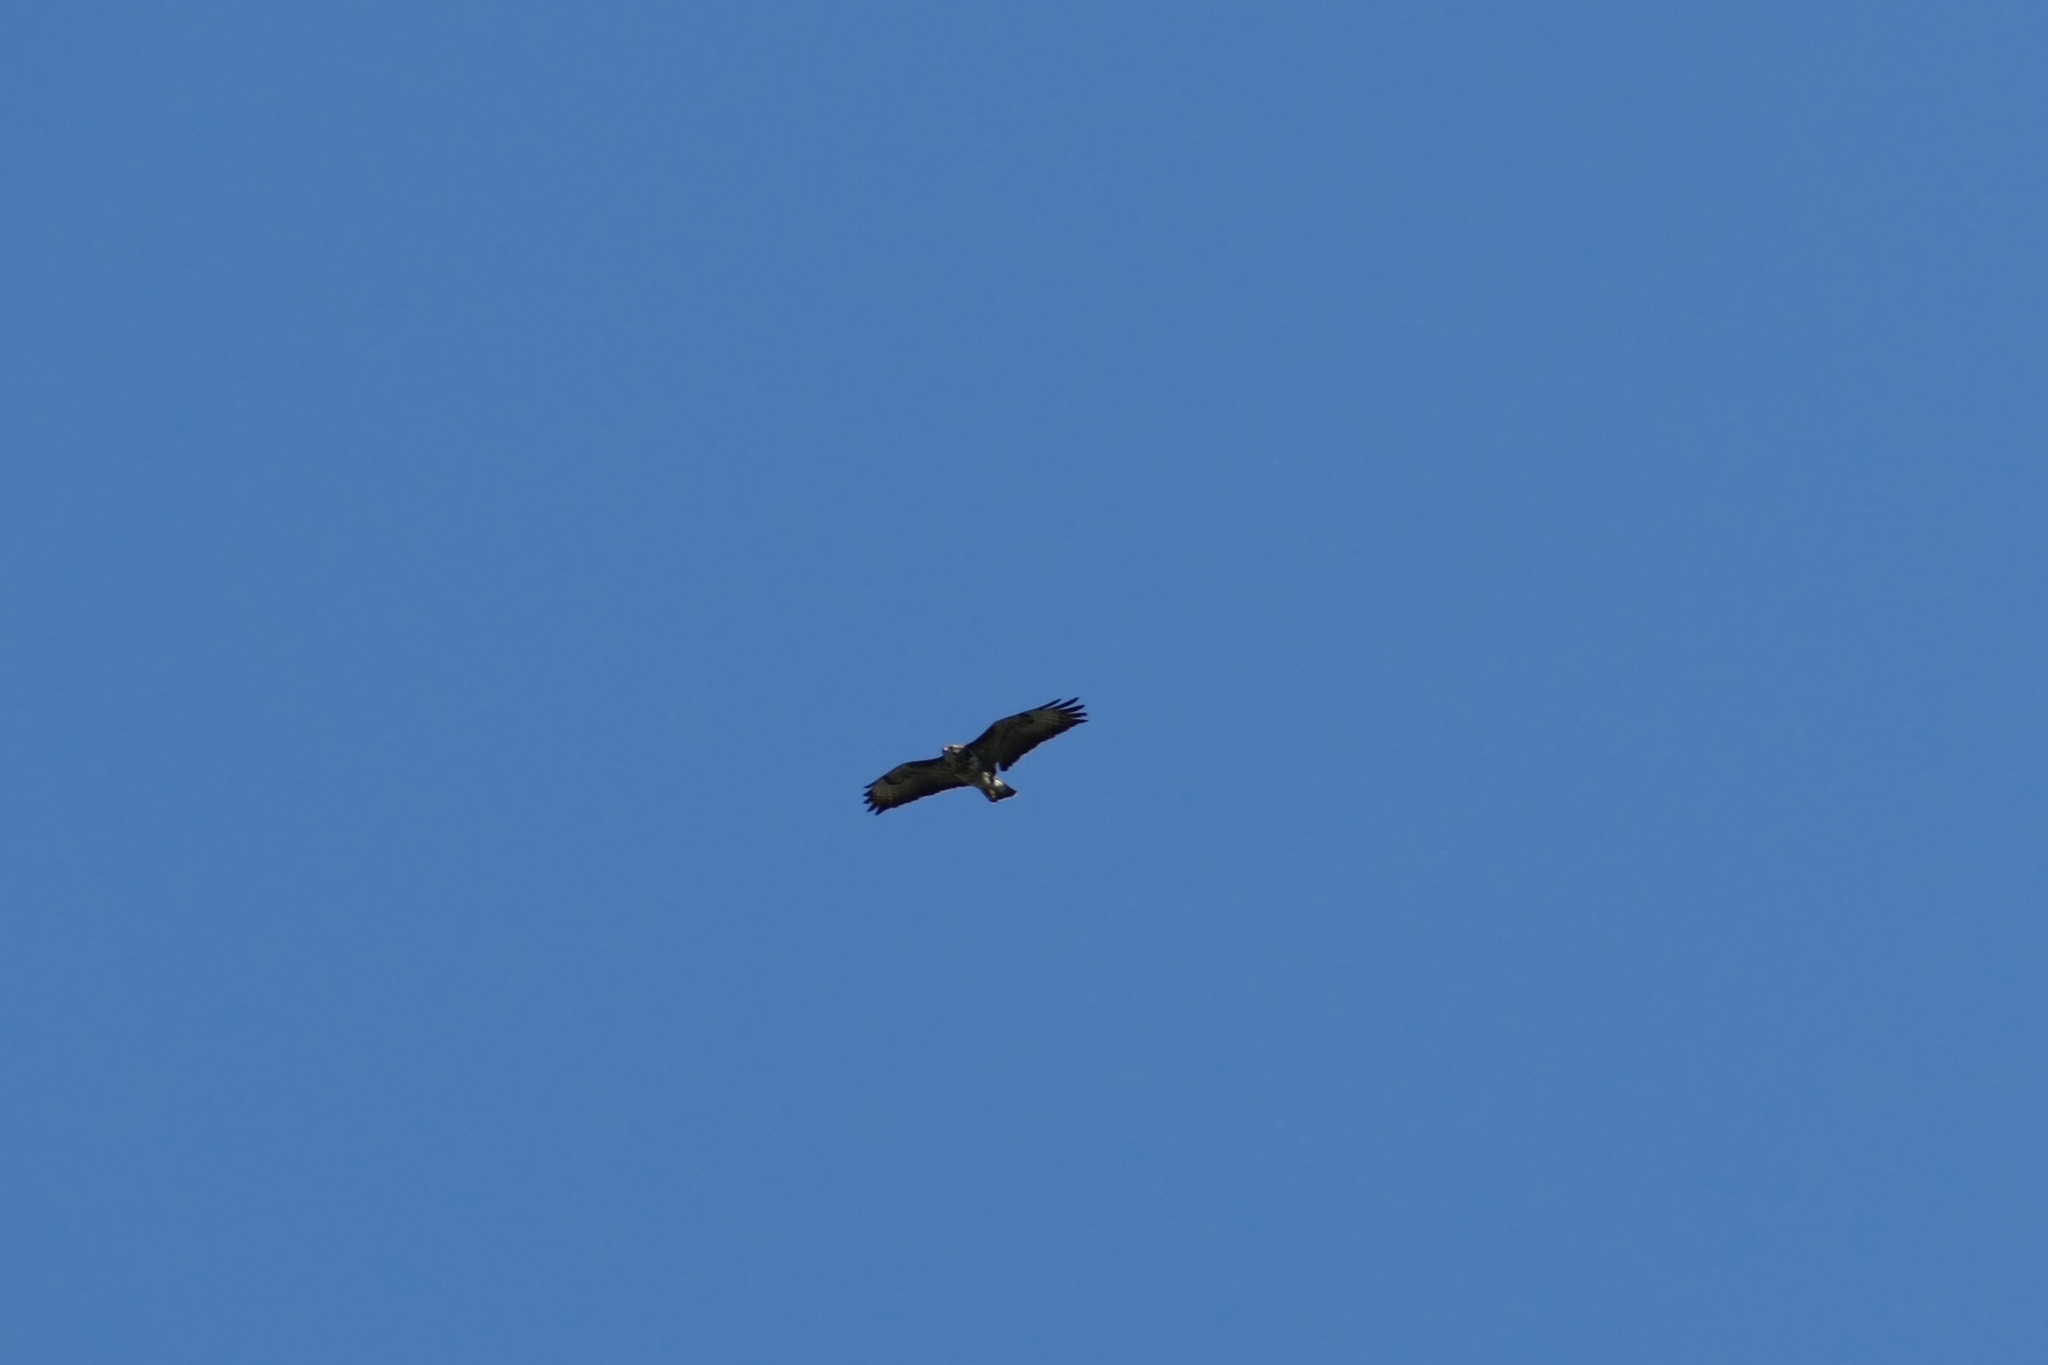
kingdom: Animalia
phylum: Chordata
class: Aves
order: Accipitriformes
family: Accipitridae
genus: Buteo
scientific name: Buteo buteo
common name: Common buzzard
